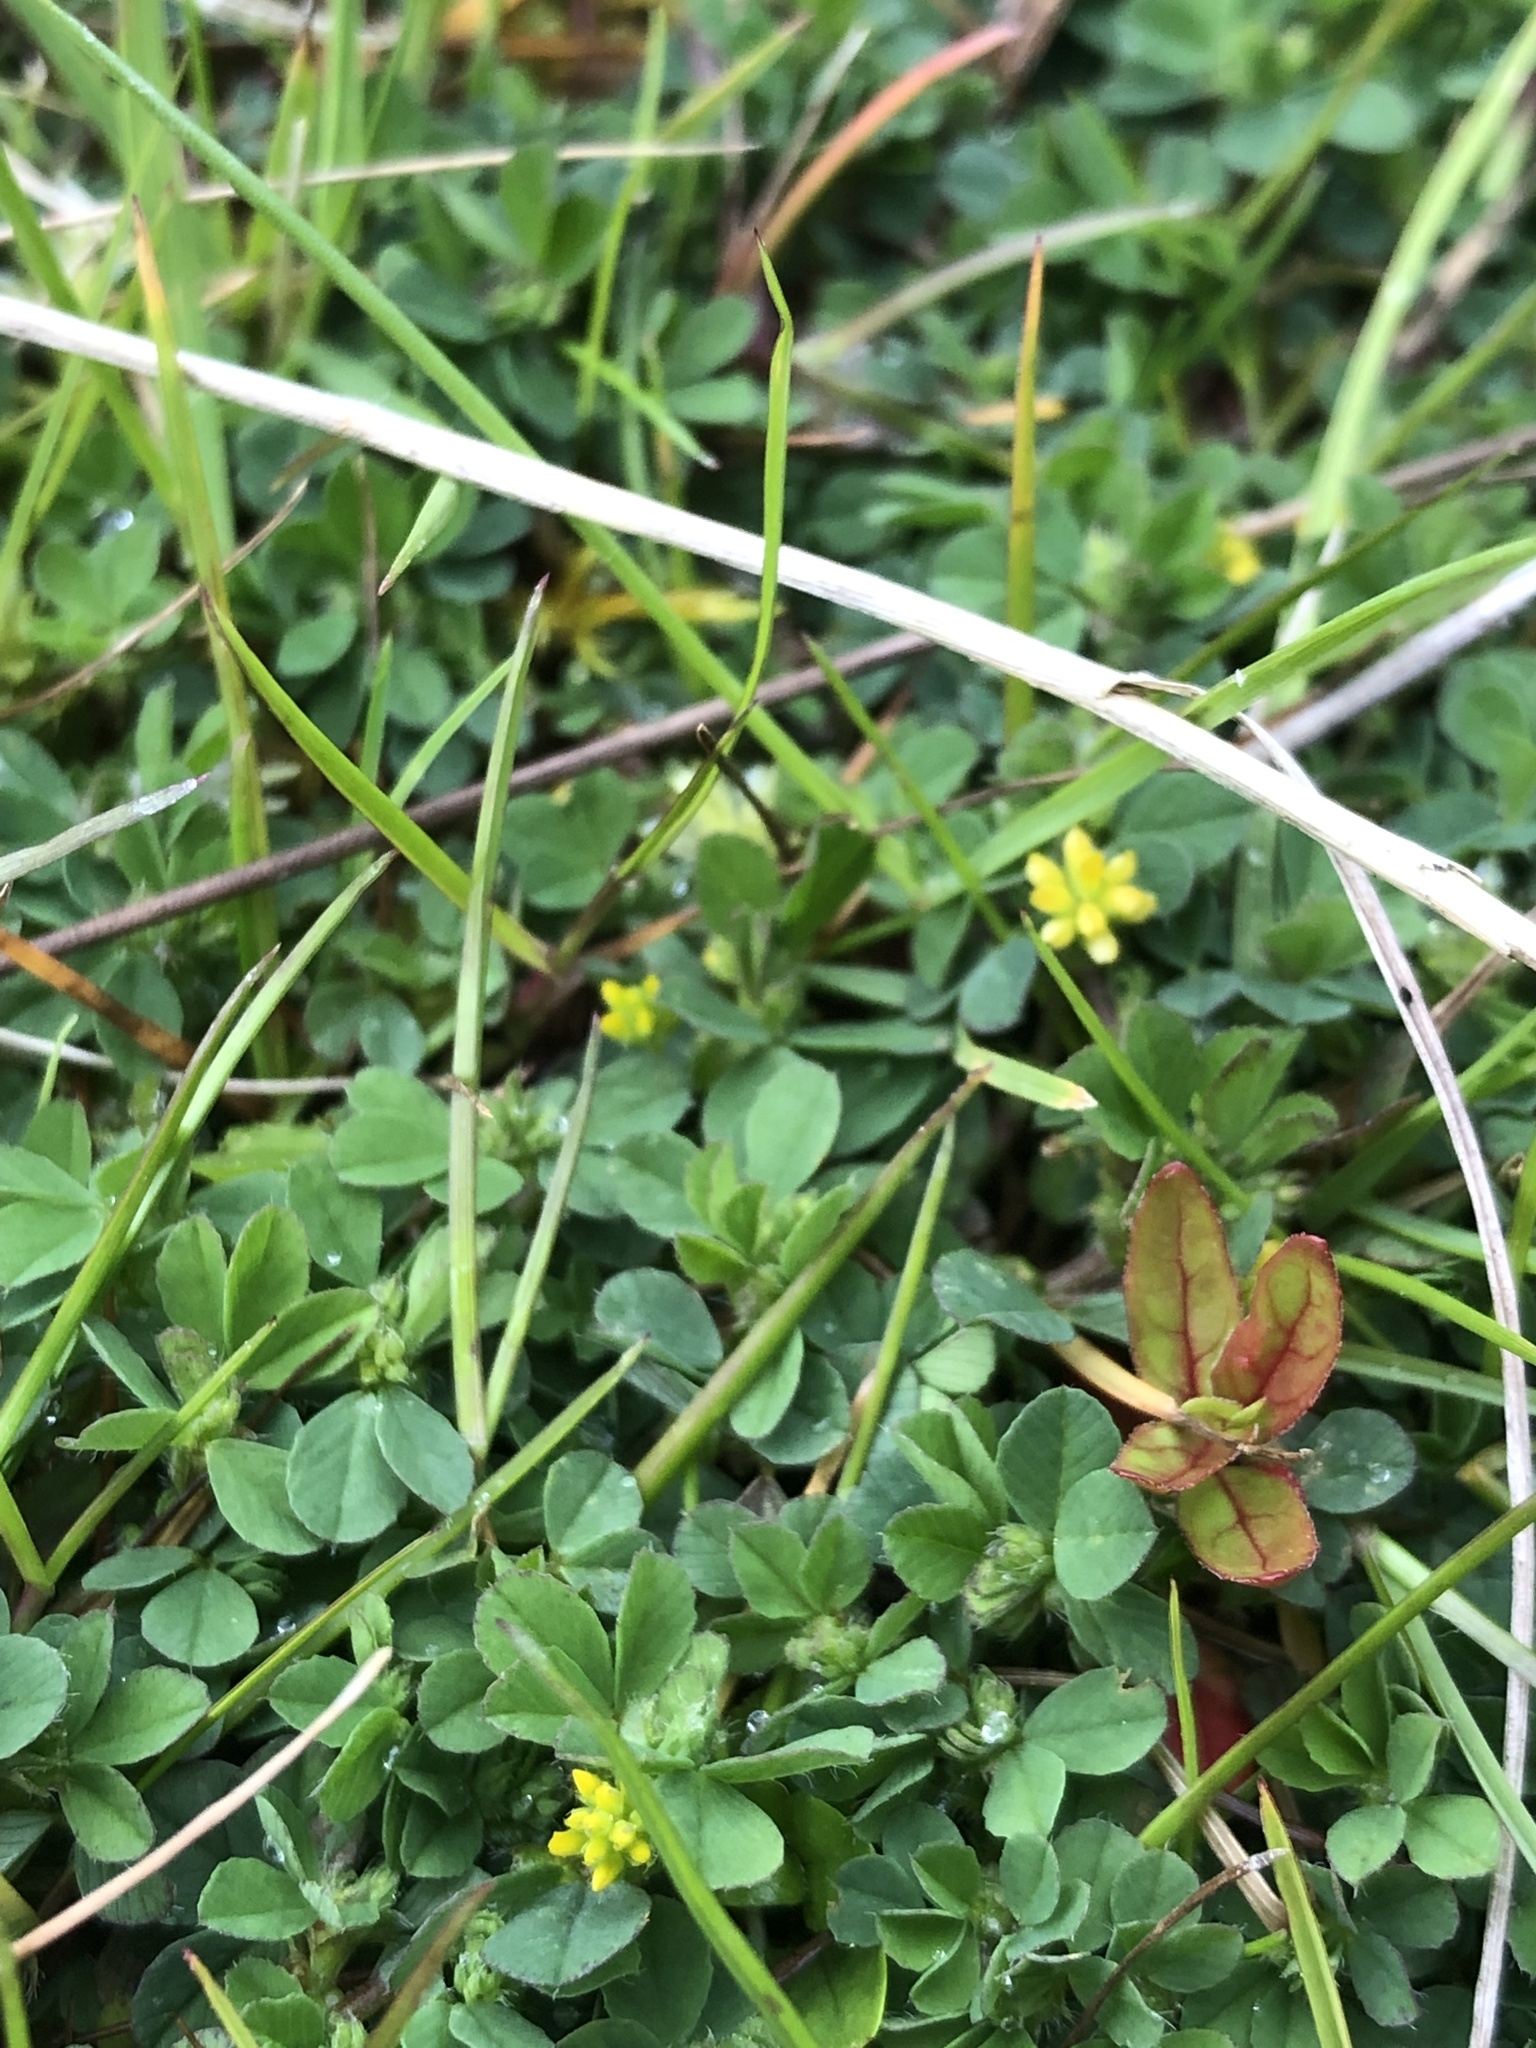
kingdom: Plantae
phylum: Tracheophyta
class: Magnoliopsida
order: Fabales
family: Fabaceae
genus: Trifolium
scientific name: Trifolium dubium
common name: Suckling clover
